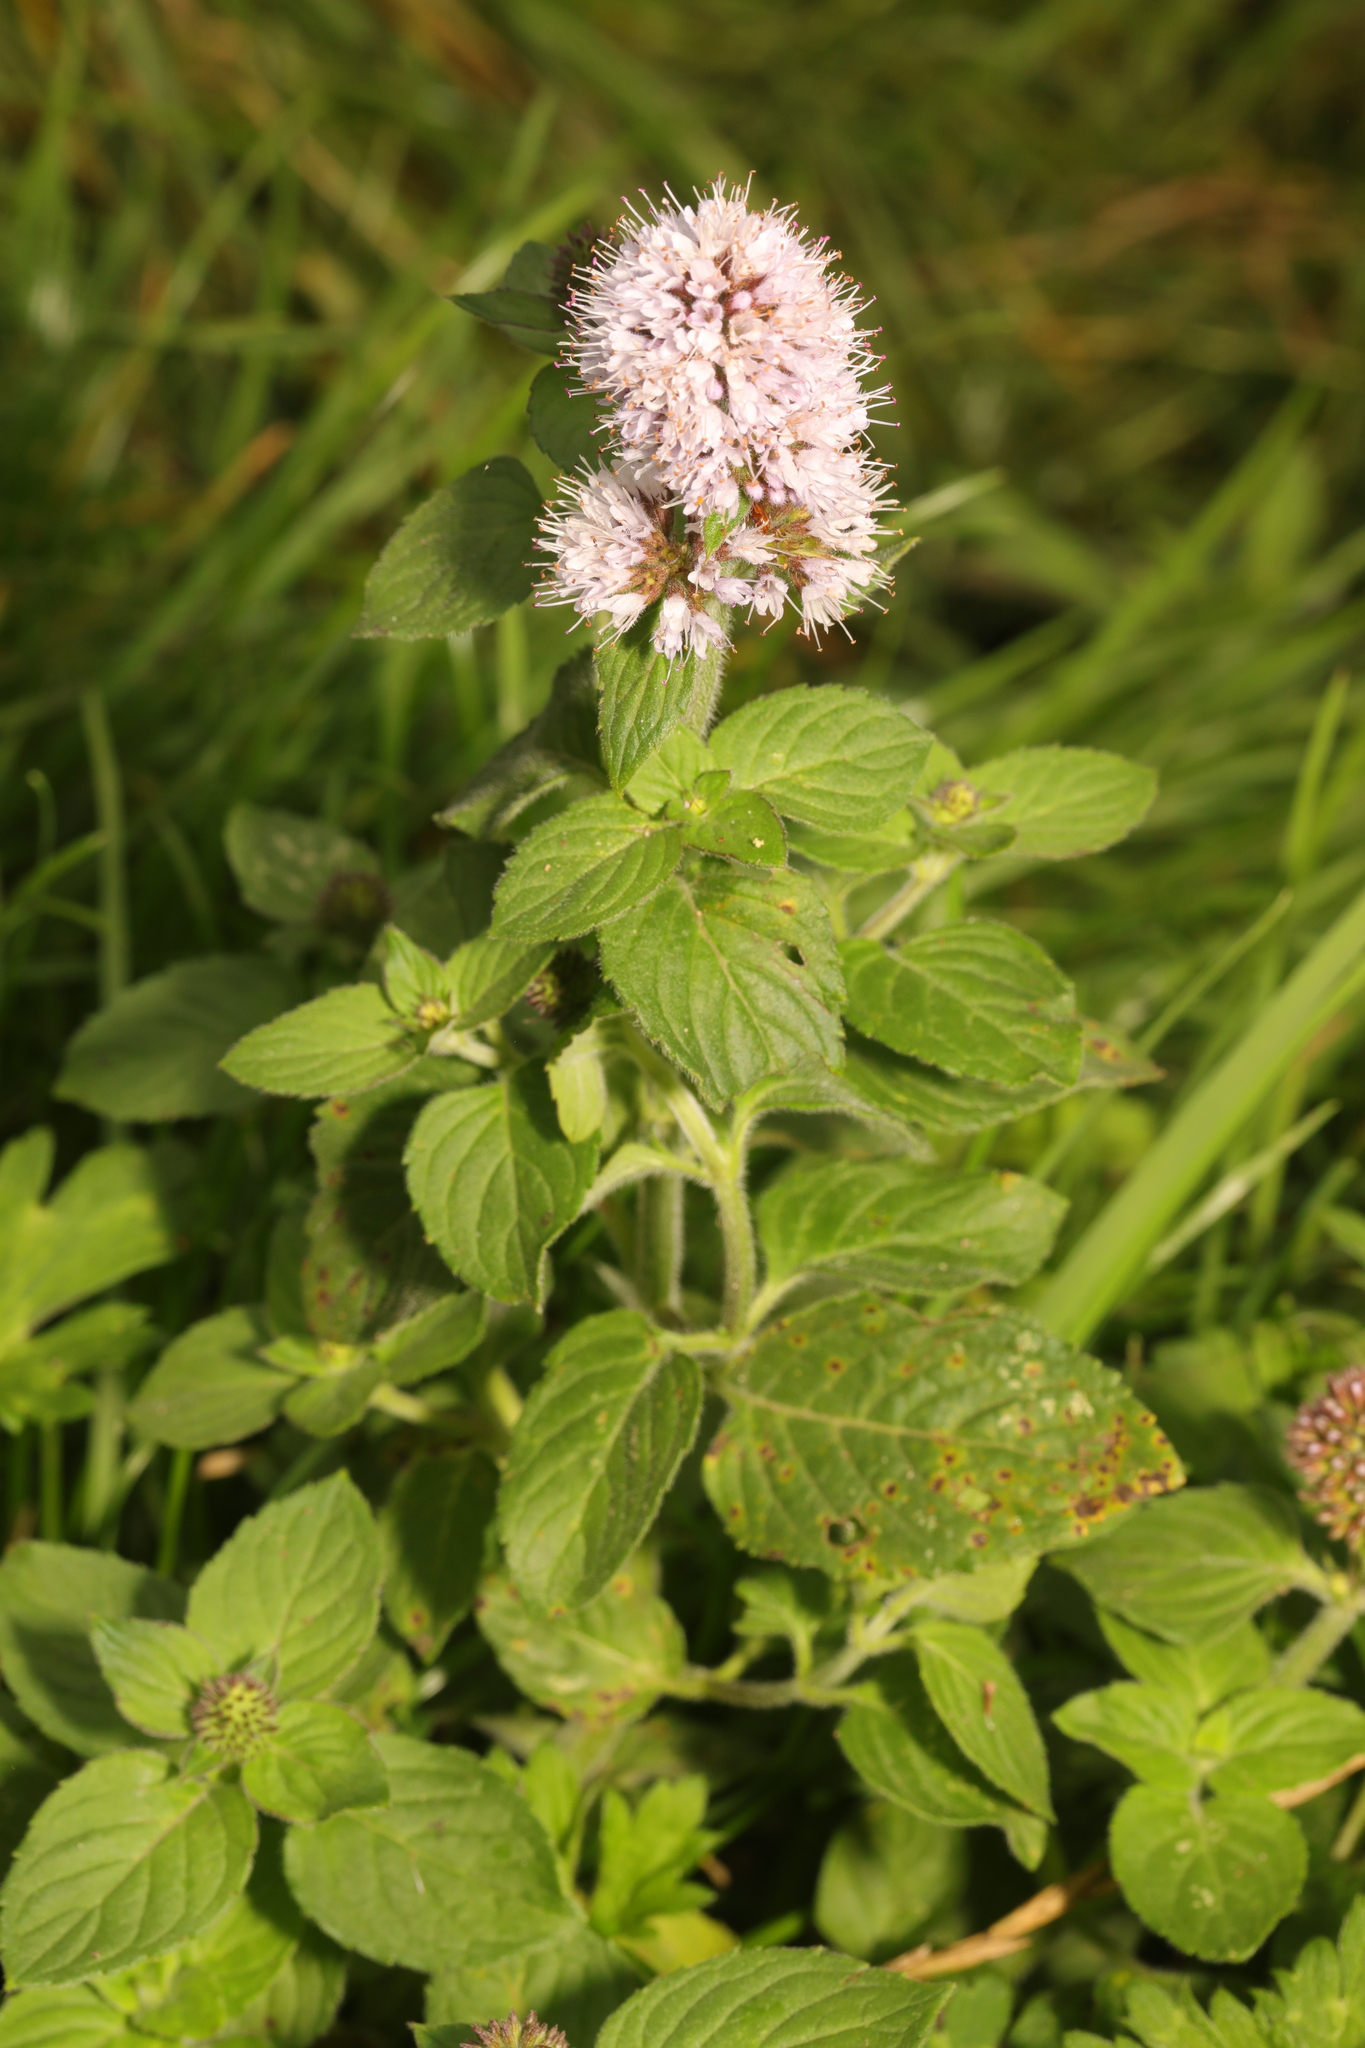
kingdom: Plantae
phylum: Tracheophyta
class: Magnoliopsida
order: Lamiales
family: Lamiaceae
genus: Mentha
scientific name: Mentha aquatica
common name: Water mint
